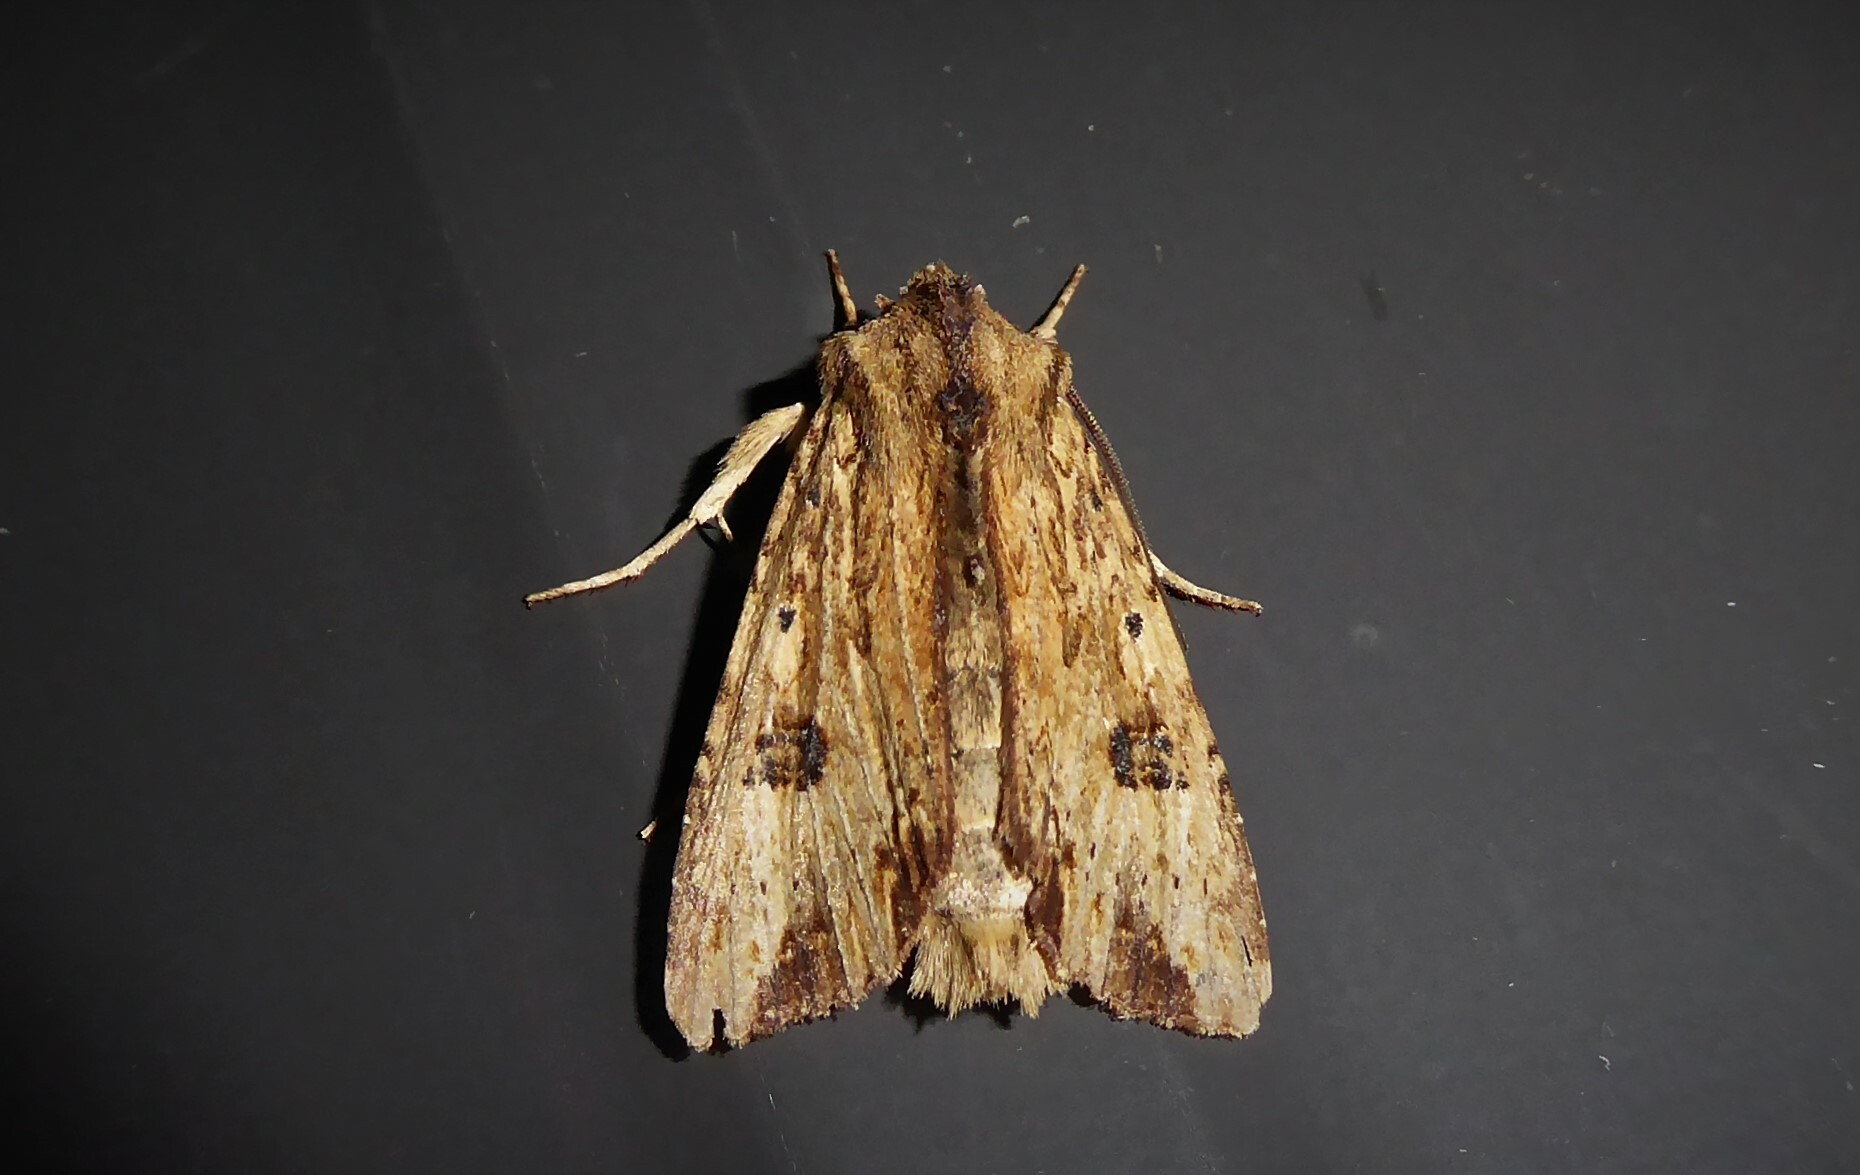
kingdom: Animalia
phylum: Arthropoda
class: Insecta
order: Lepidoptera
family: Noctuidae
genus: Ichneutica
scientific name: Ichneutica
